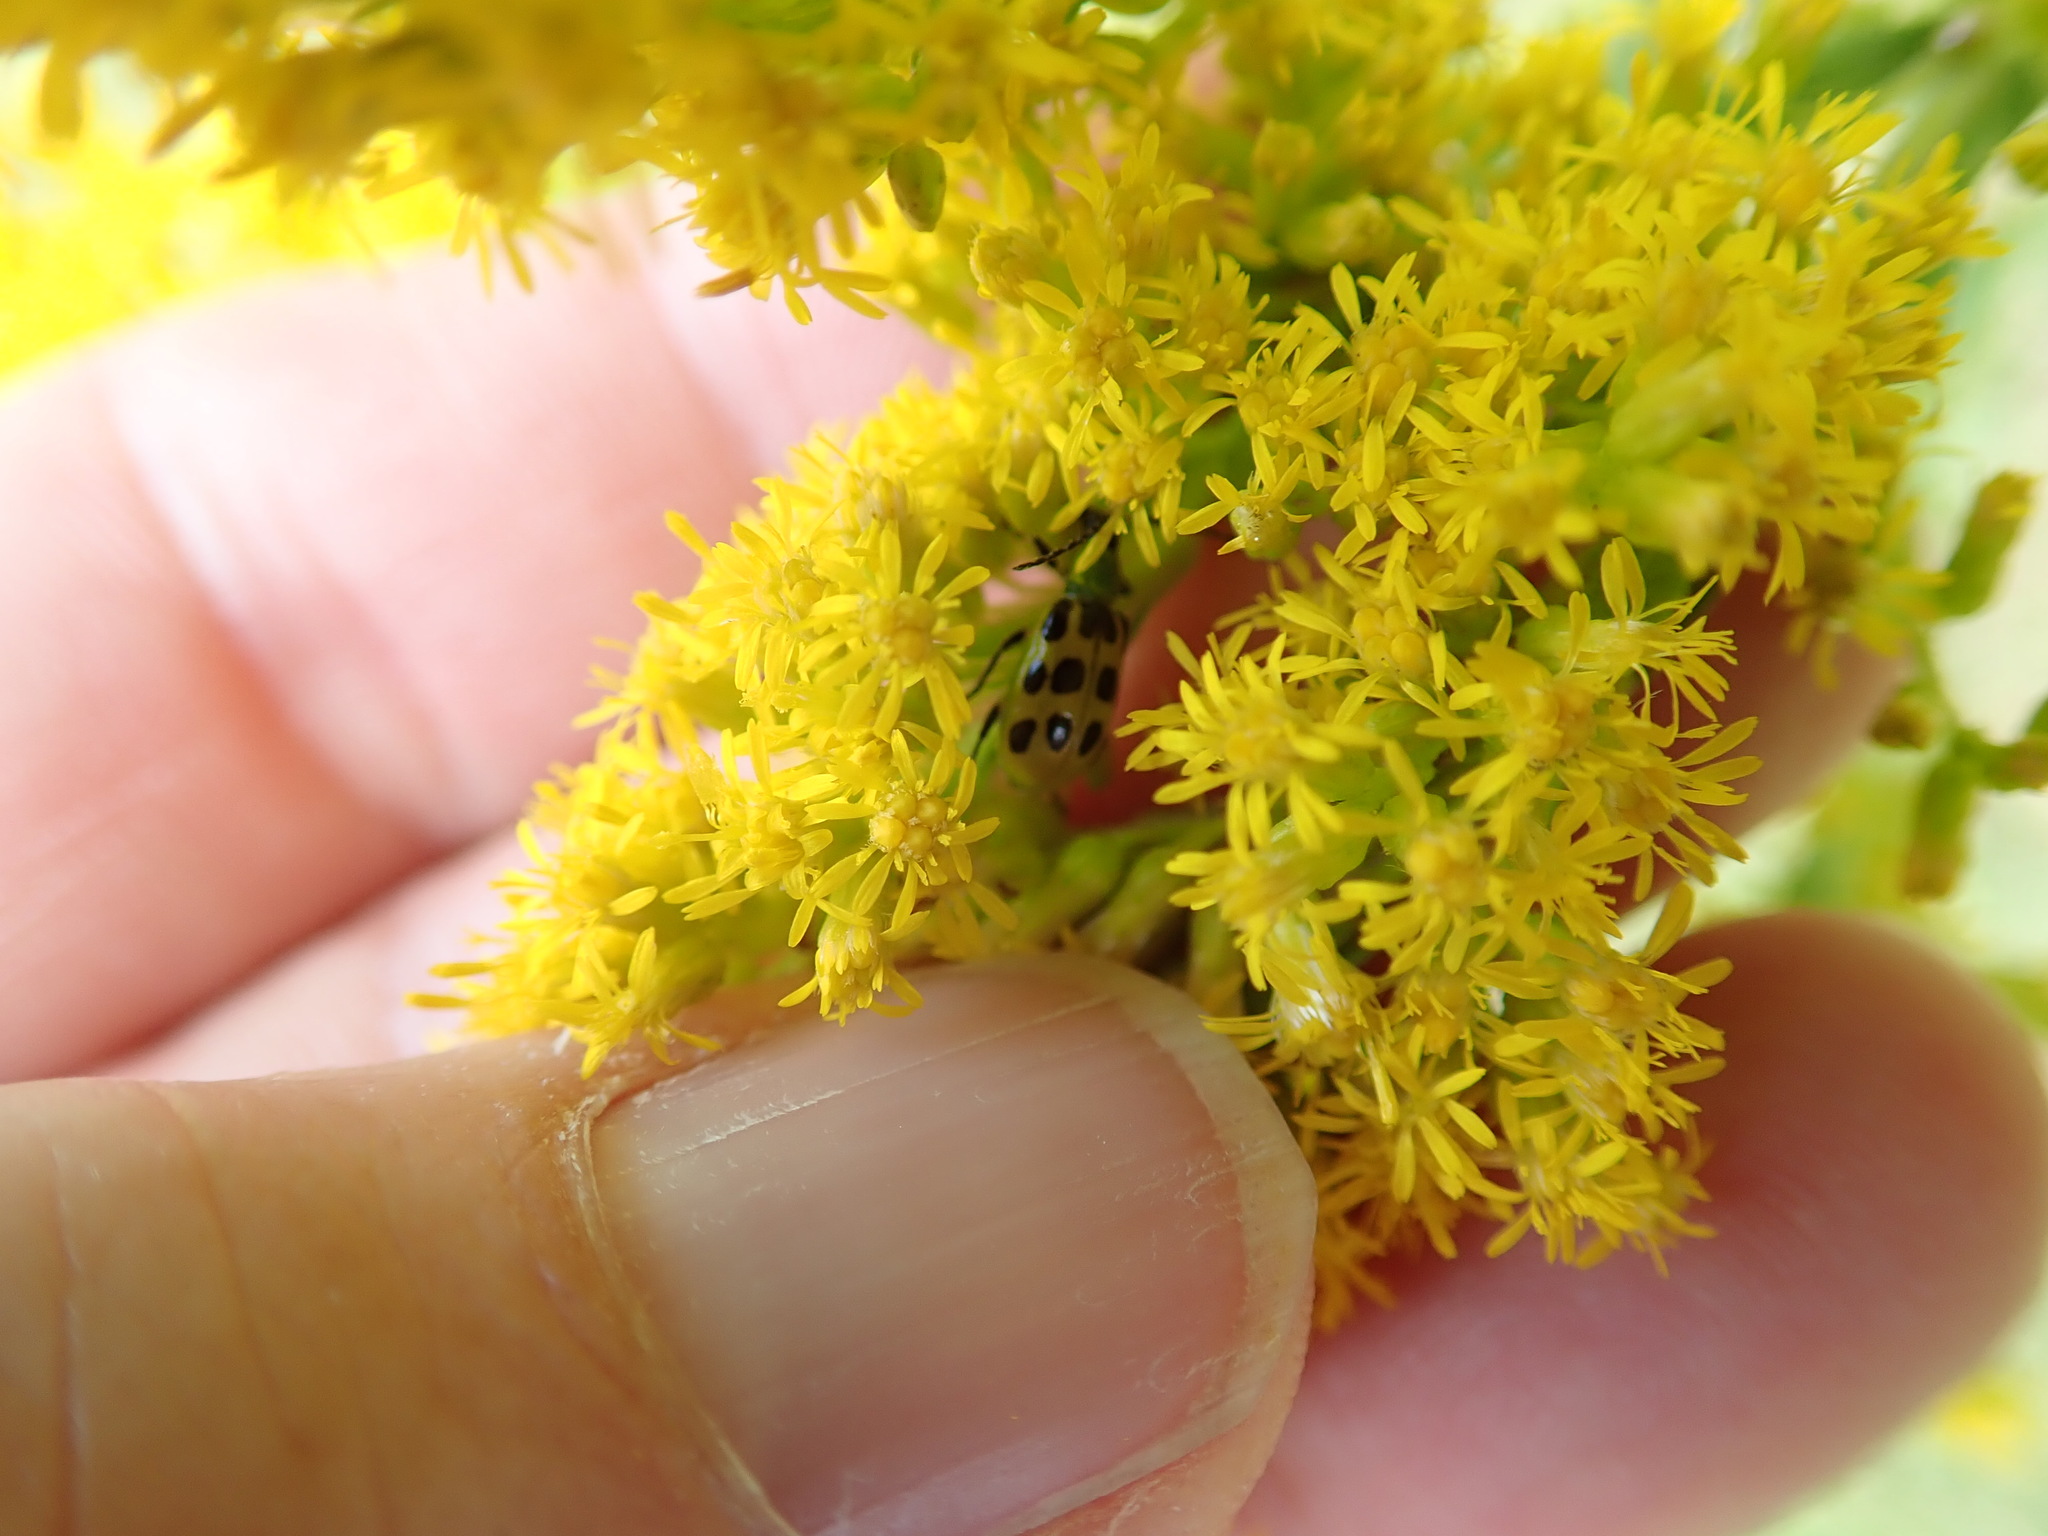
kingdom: Animalia
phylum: Arthropoda
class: Insecta
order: Coleoptera
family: Chrysomelidae
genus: Diabrotica
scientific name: Diabrotica undecimpunctata
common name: Spotted cucumber beetle
